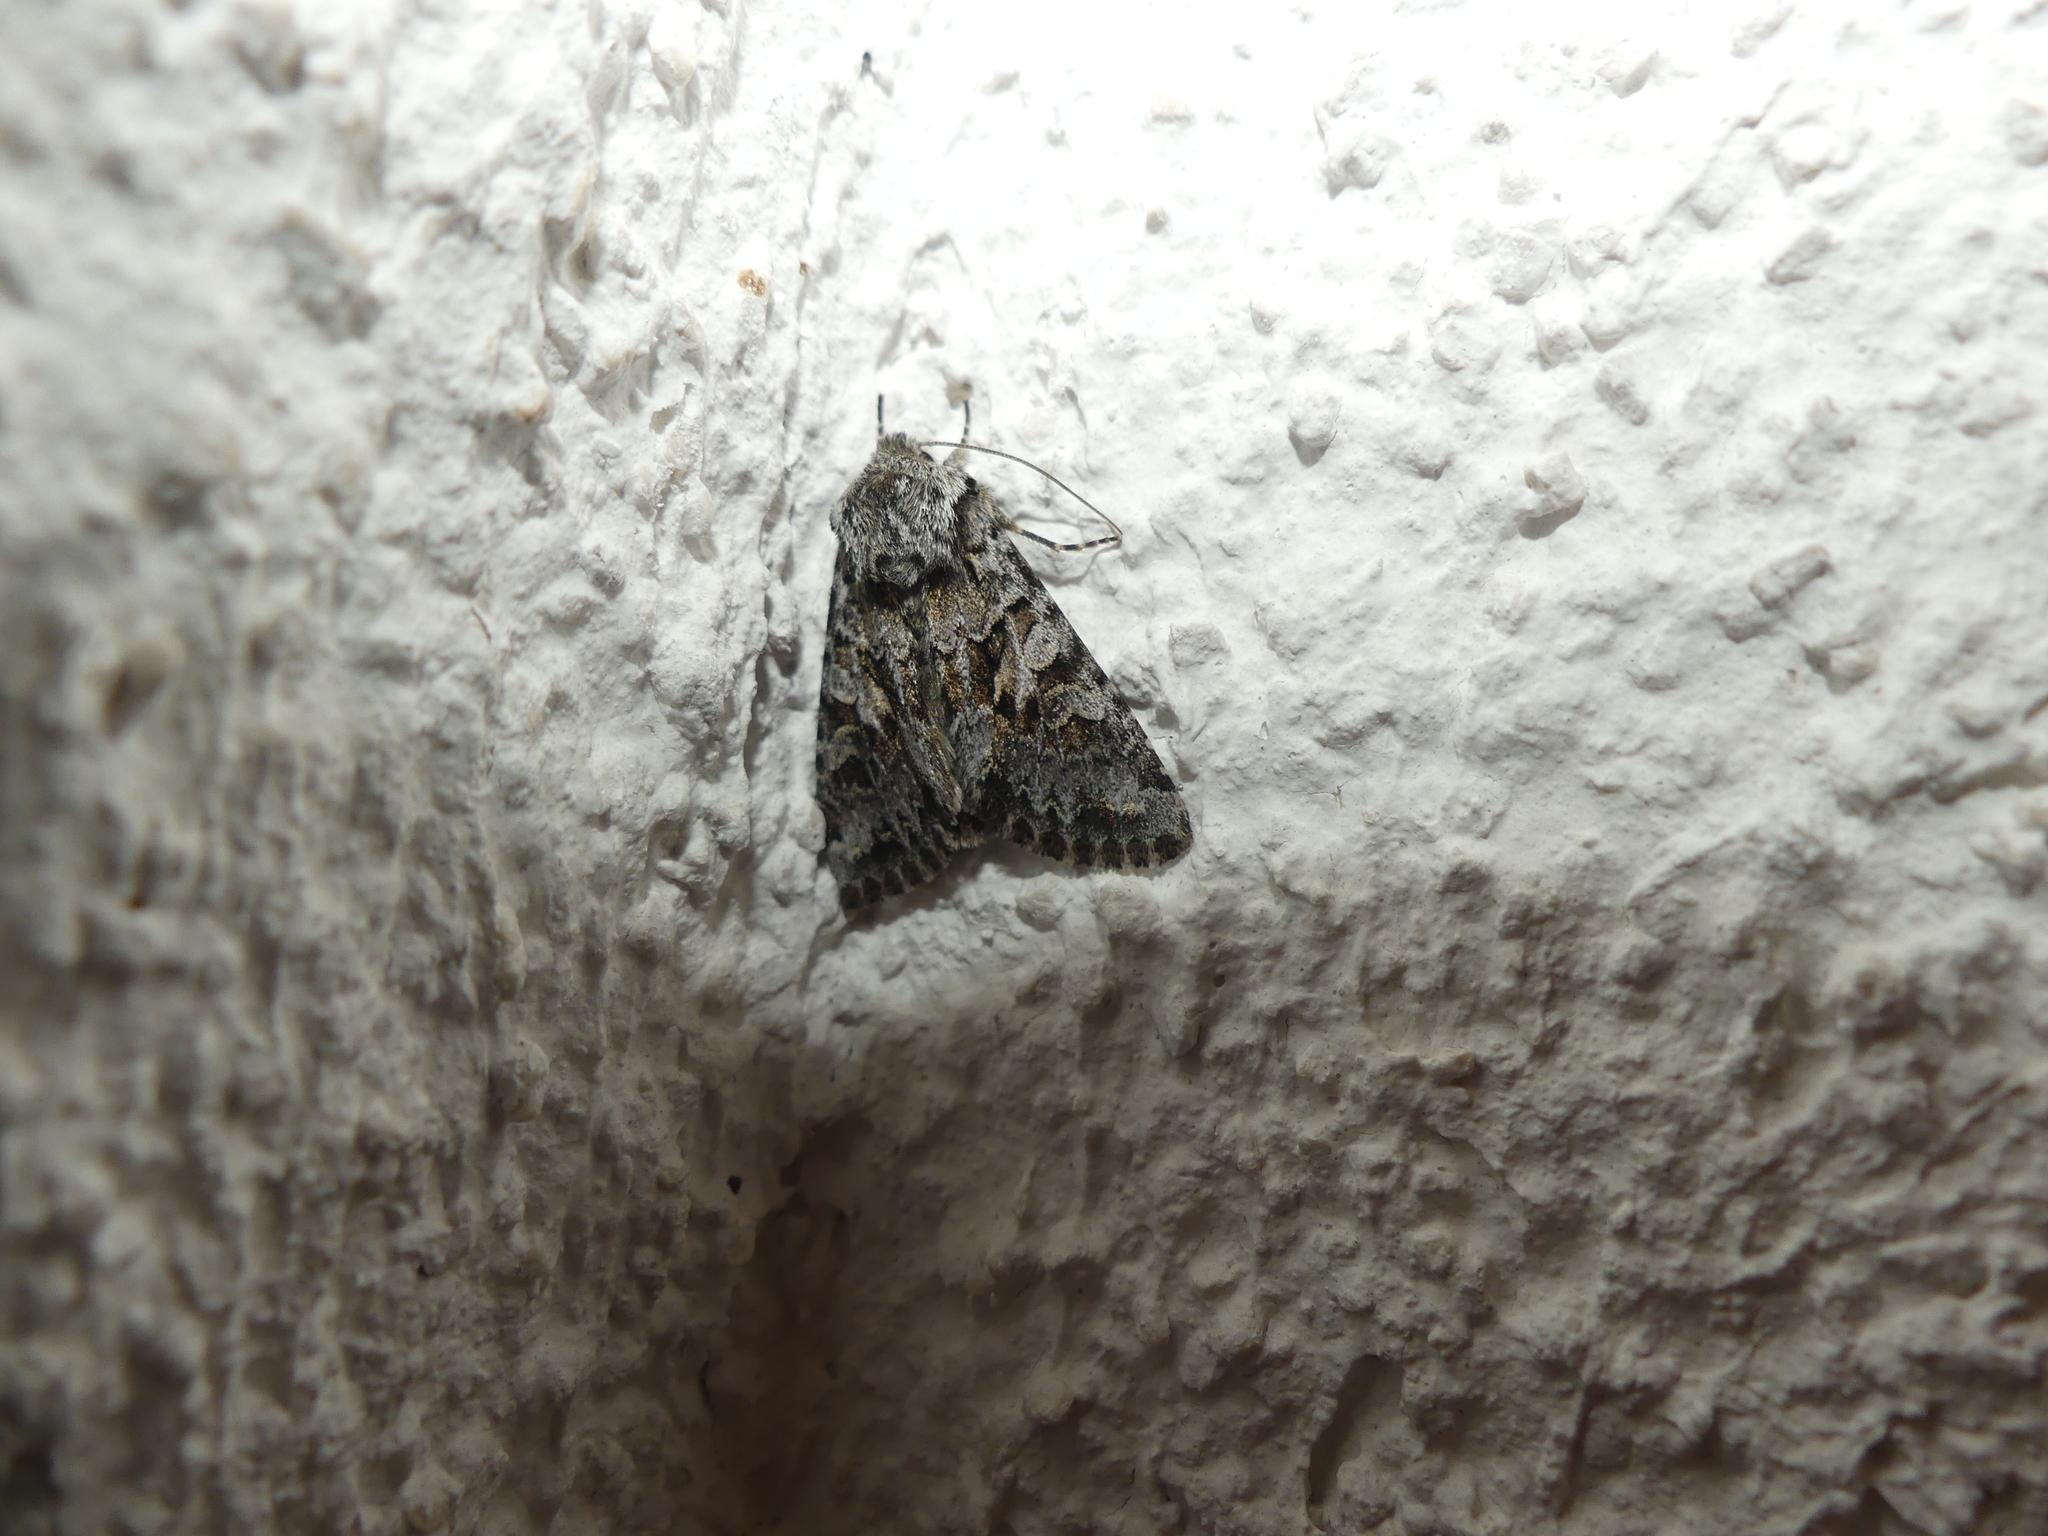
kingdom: Animalia
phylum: Arthropoda
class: Insecta
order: Lepidoptera
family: Noctuidae
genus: Hada
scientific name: Hada plebeja
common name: Shears
